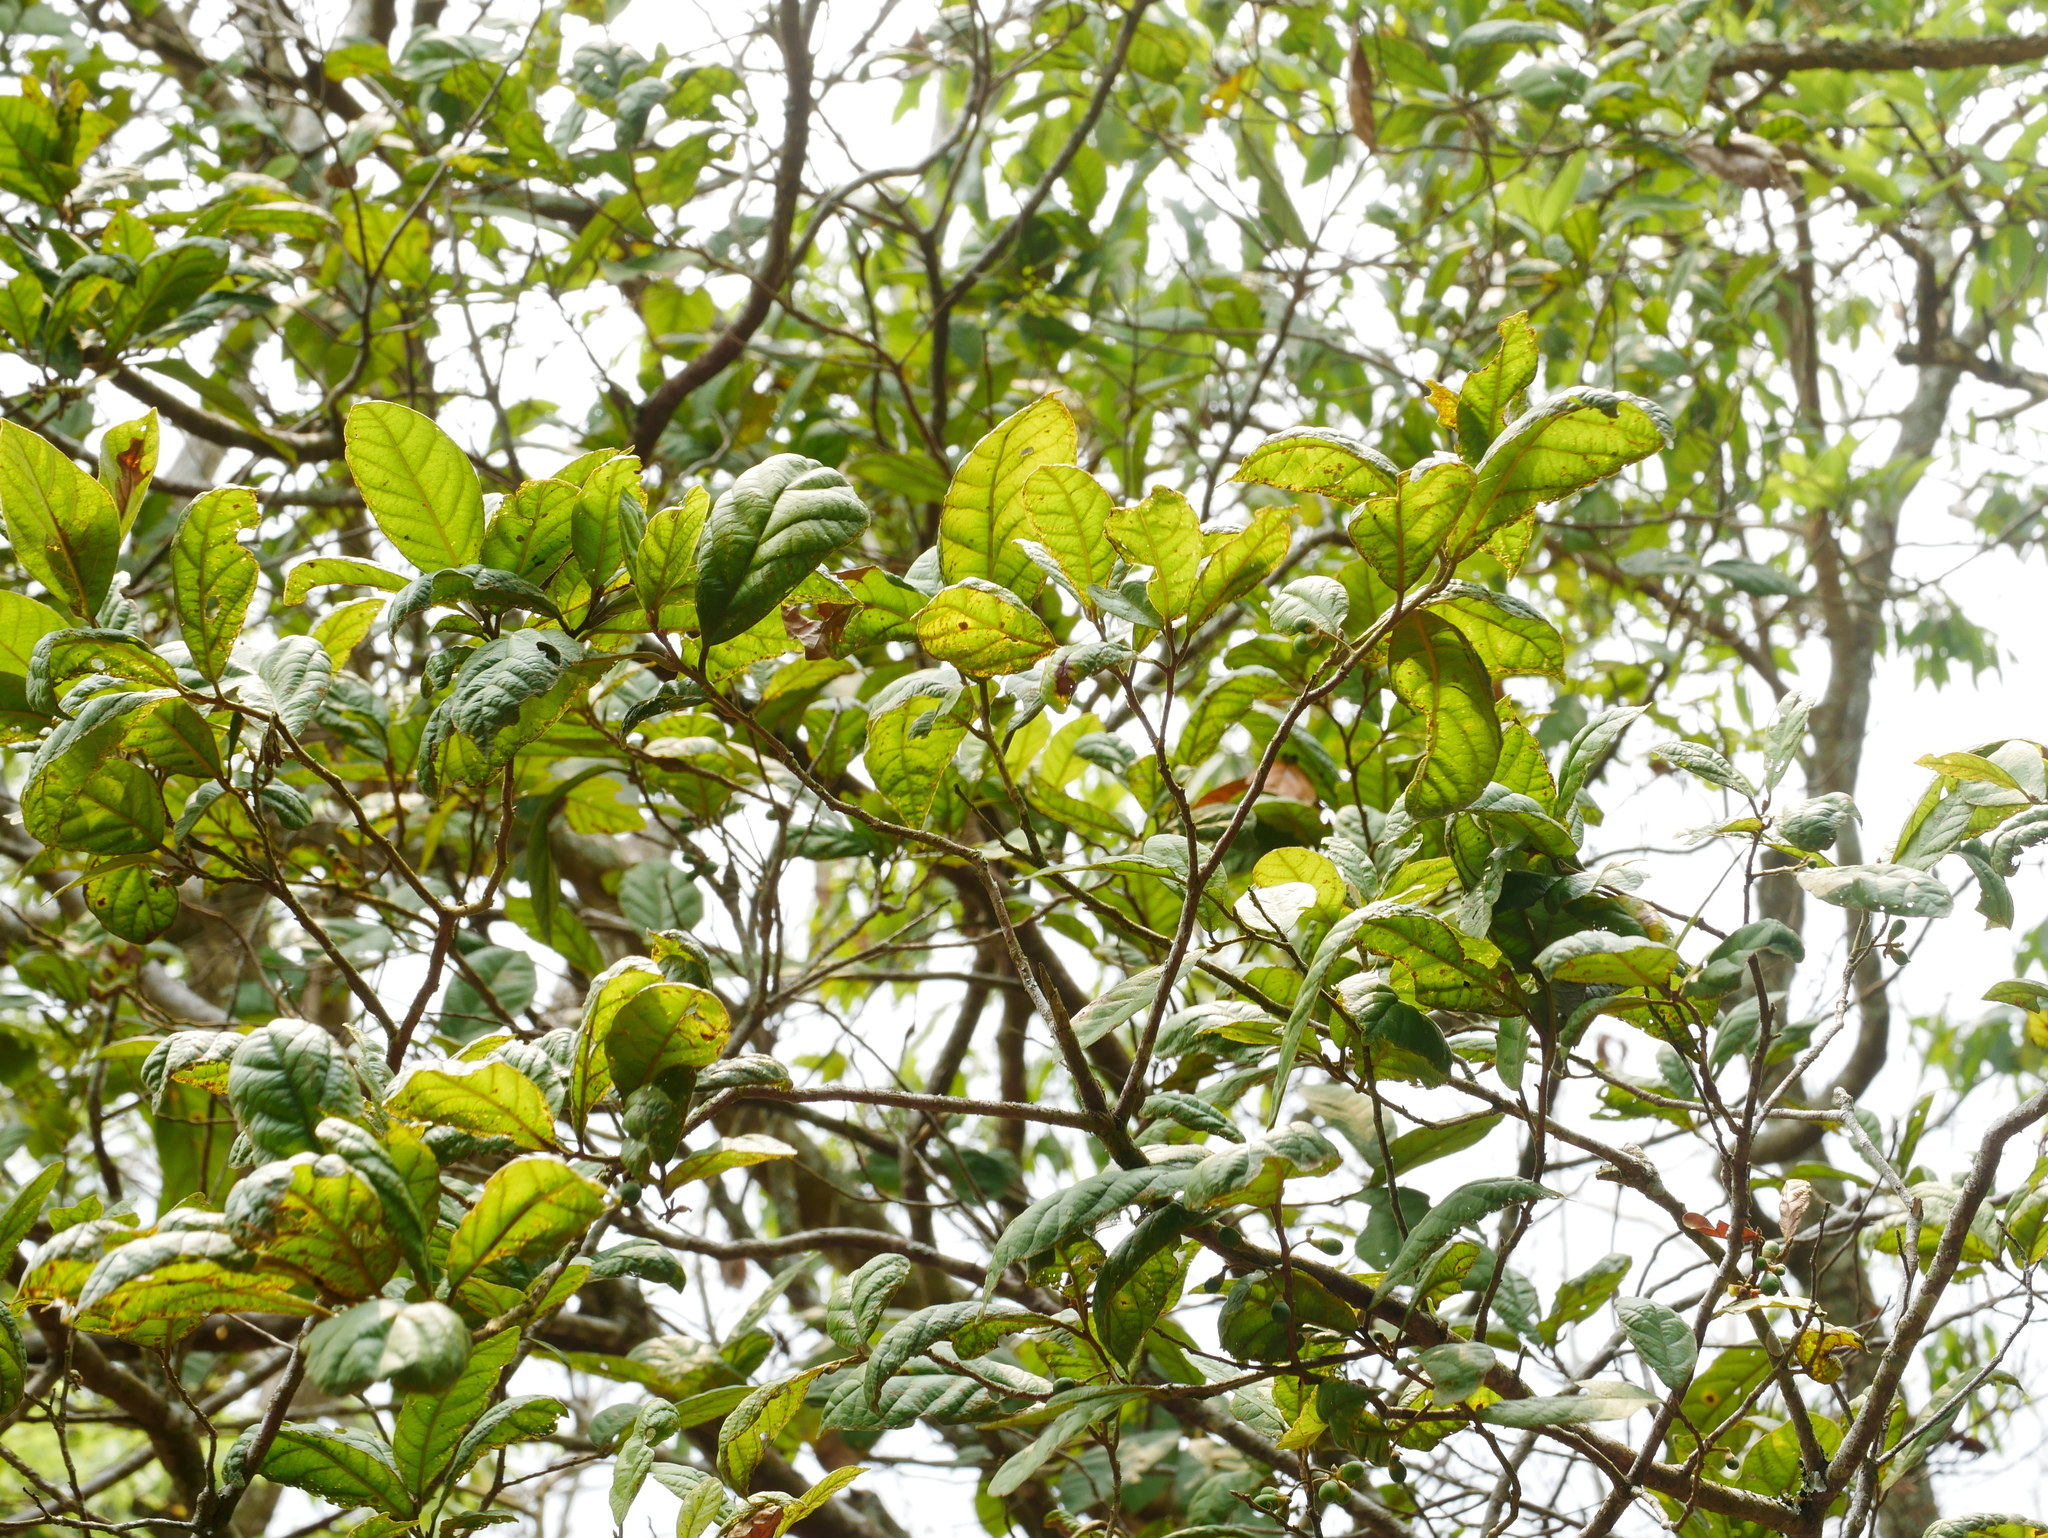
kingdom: Plantae
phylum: Tracheophyta
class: Magnoliopsida
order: Laurales
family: Lauraceae
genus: Litsea
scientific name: Litsea akoensis
